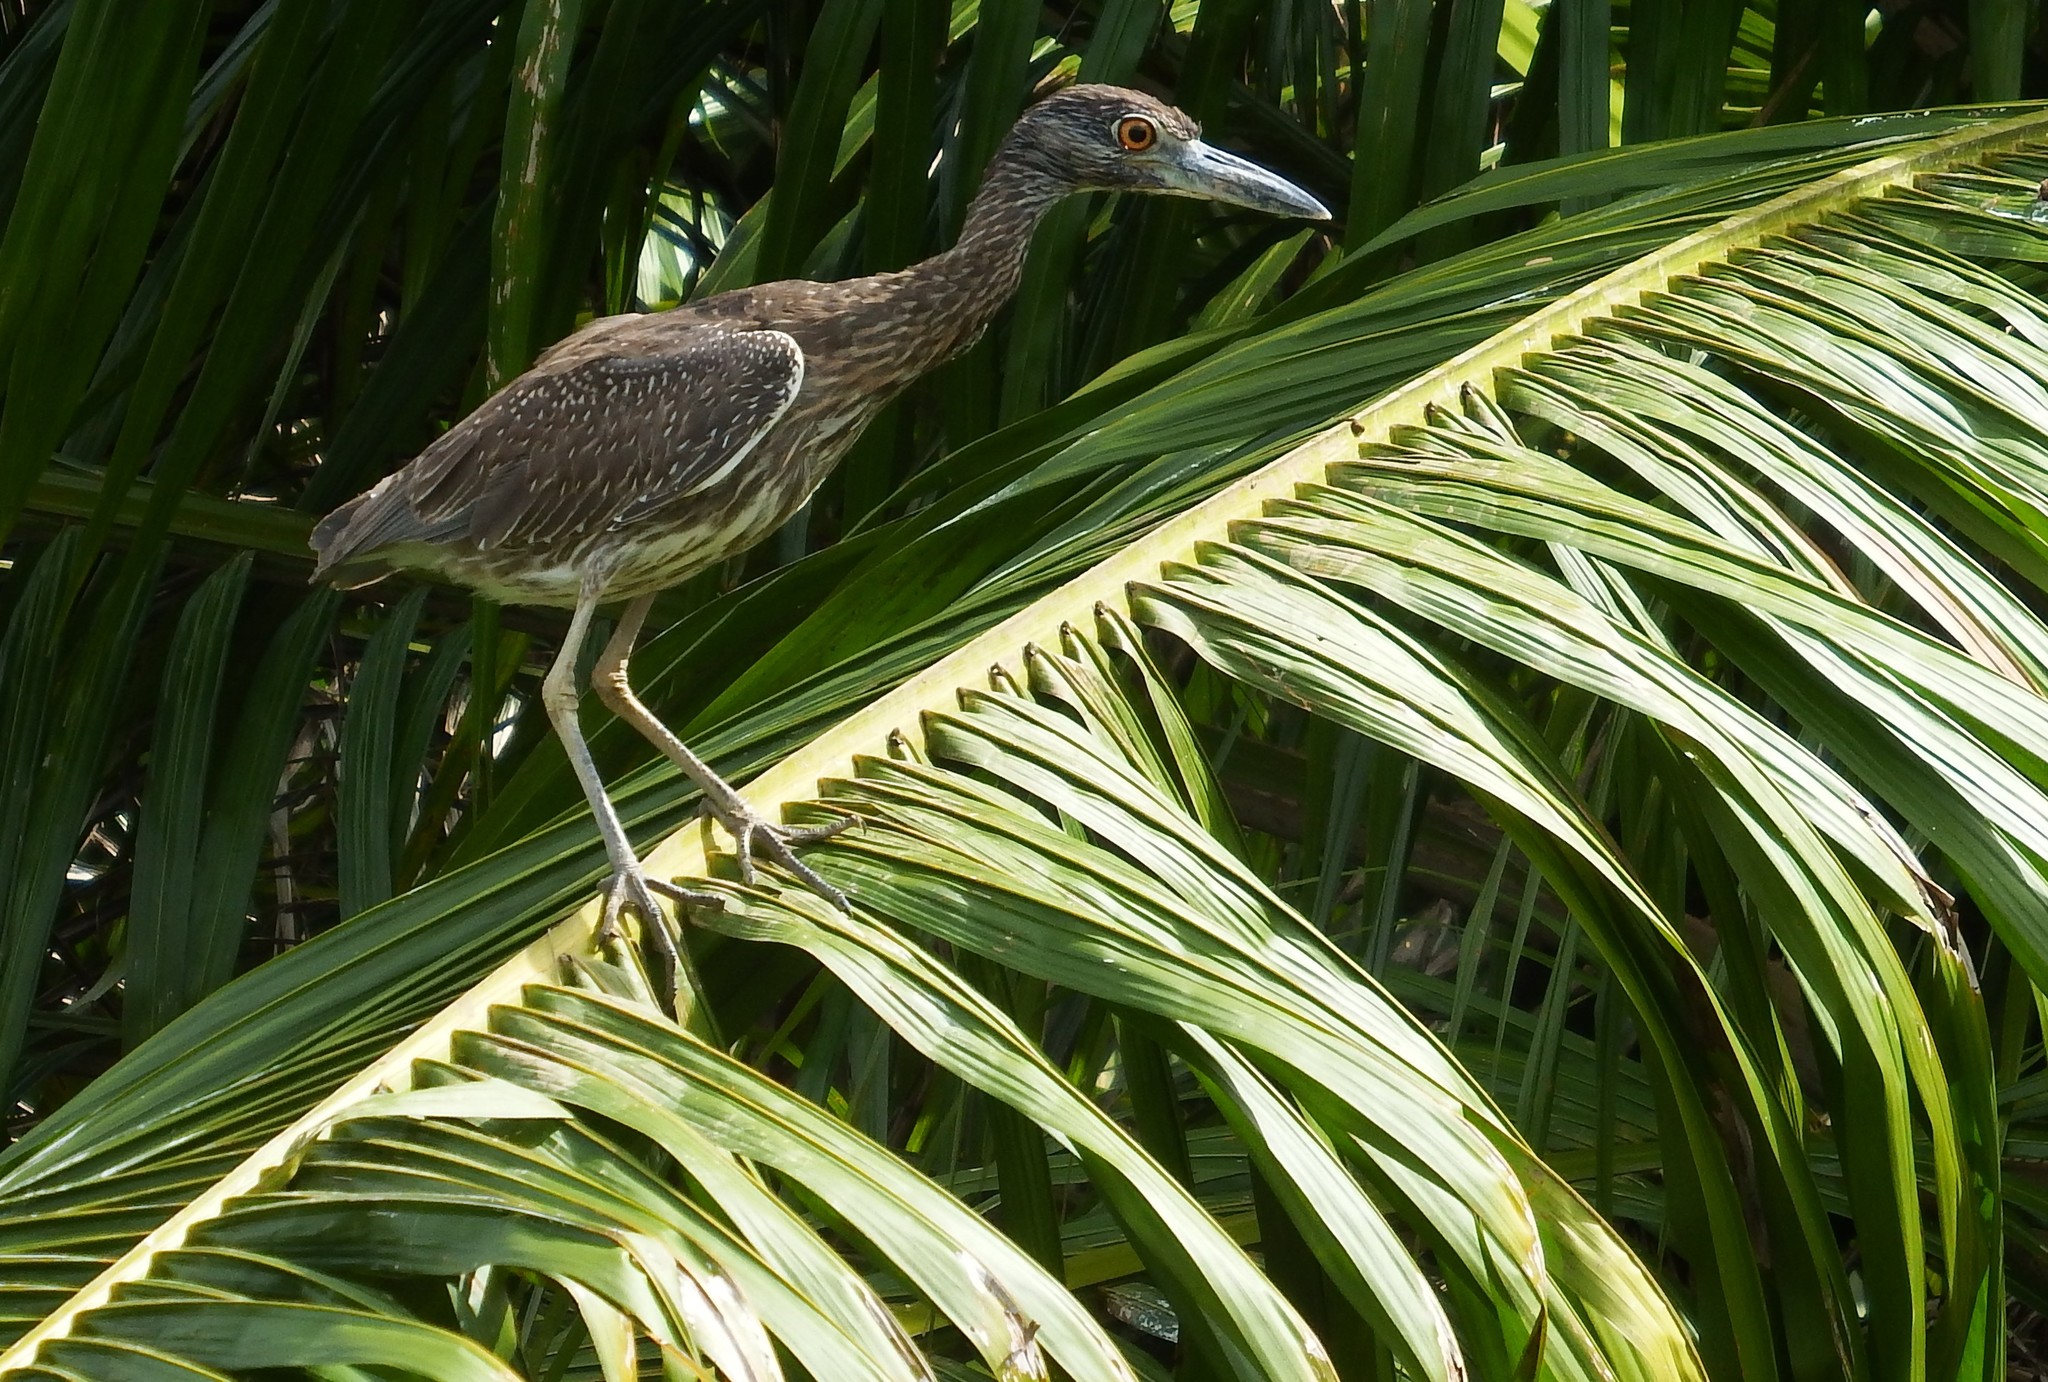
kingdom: Animalia
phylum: Chordata
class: Aves
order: Pelecaniformes
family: Ardeidae
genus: Nyctanassa
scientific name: Nyctanassa violacea
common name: Yellow-crowned night heron
